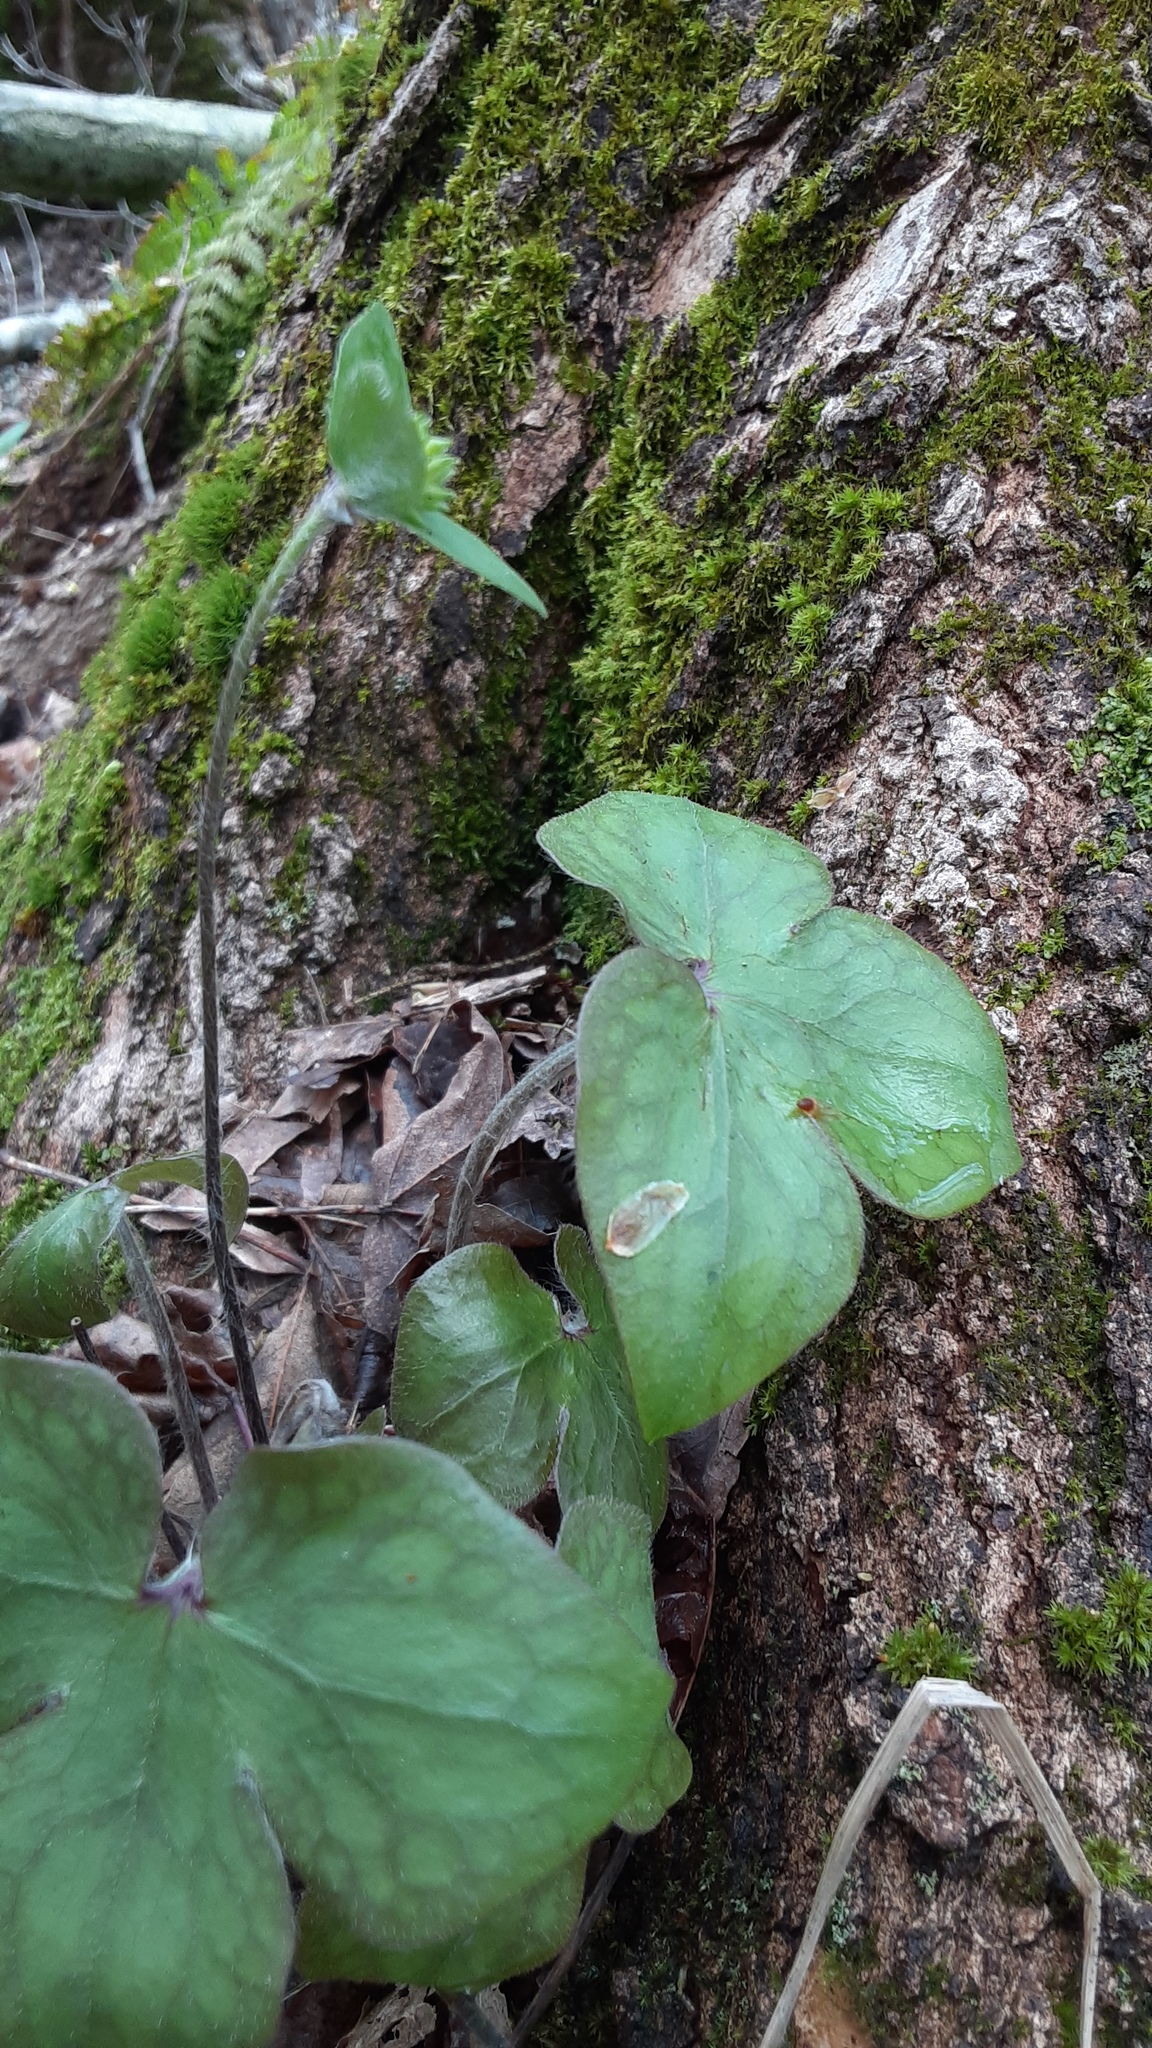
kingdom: Plantae
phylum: Tracheophyta
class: Magnoliopsida
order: Ranunculales
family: Ranunculaceae
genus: Hepatica
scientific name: Hepatica acutiloba
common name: Sharp-lobed hepatica
